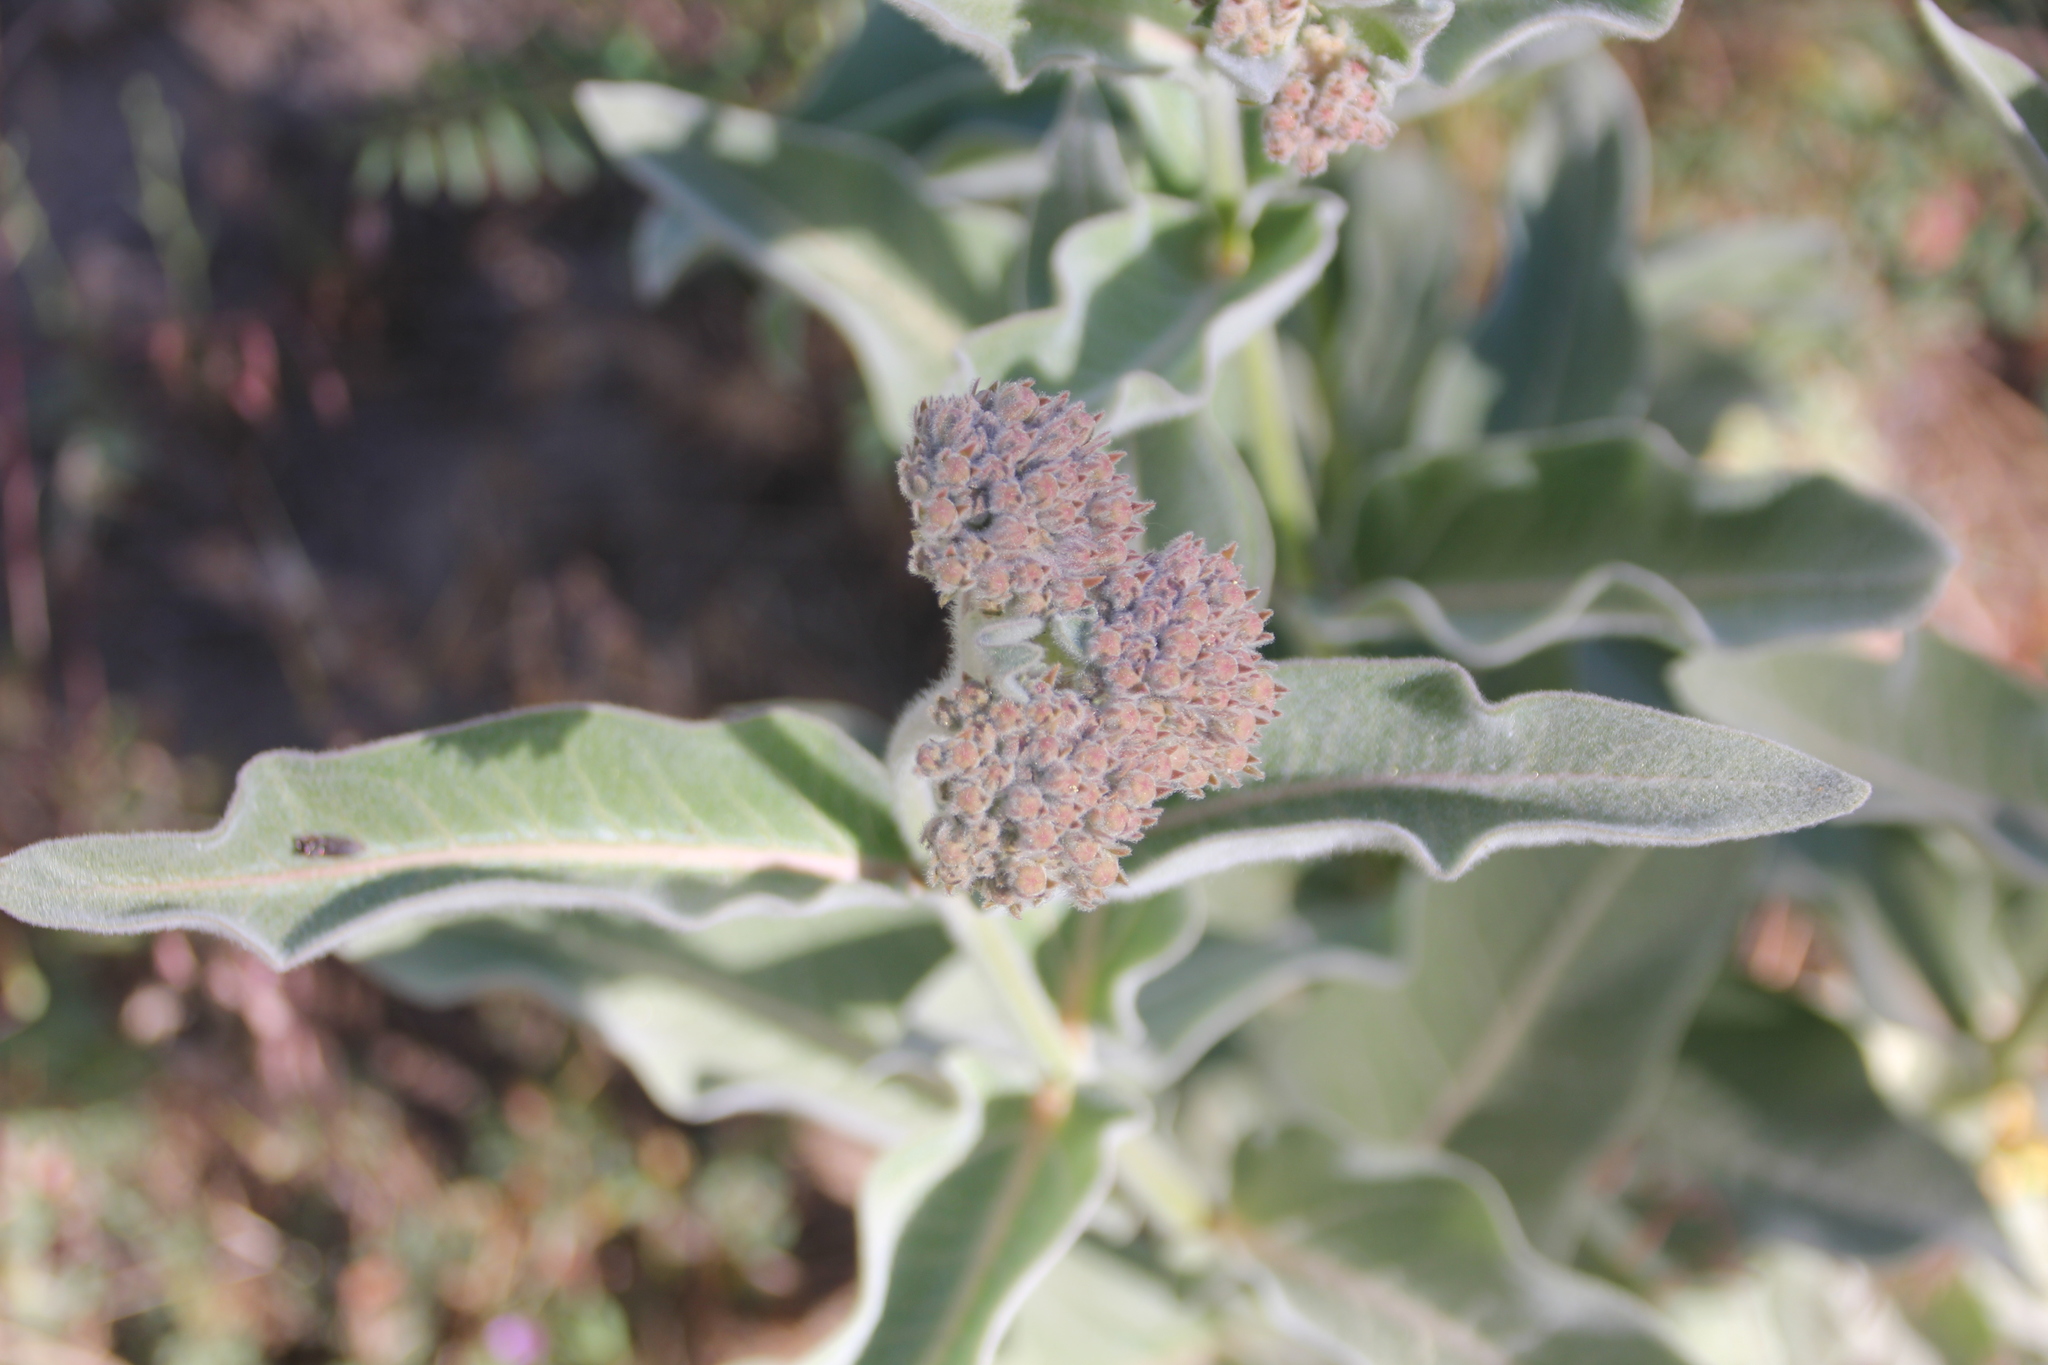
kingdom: Plantae
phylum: Tracheophyta
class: Magnoliopsida
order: Gentianales
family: Apocynaceae
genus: Asclepias
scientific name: Asclepias eriocarpa
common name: Indian milkweed
